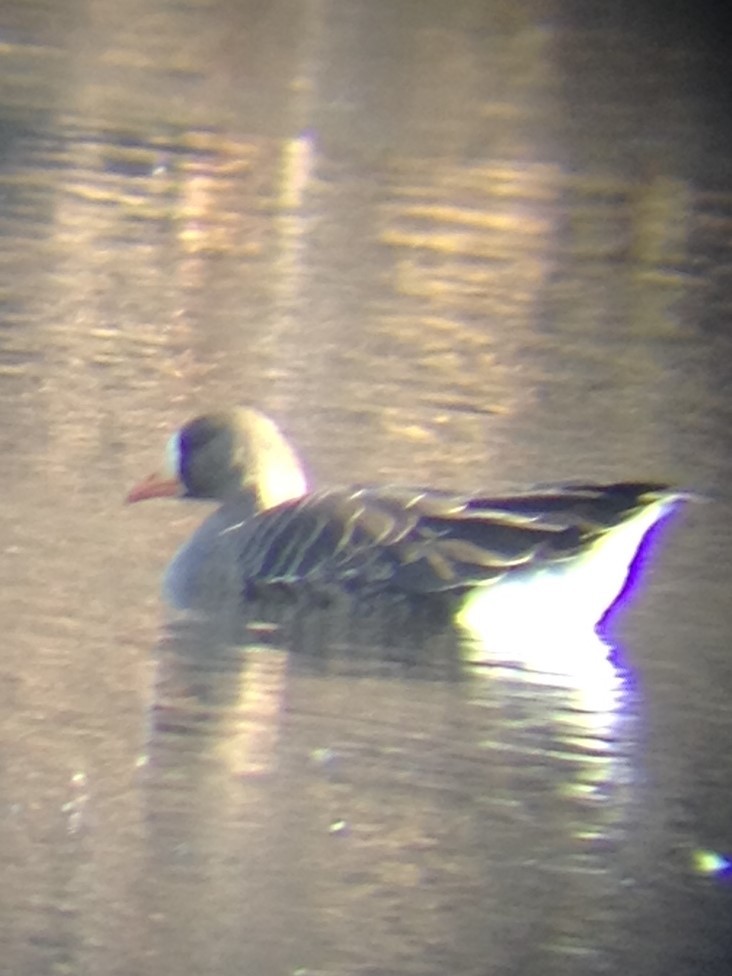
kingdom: Animalia
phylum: Chordata
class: Aves
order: Anseriformes
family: Anatidae
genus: Anser
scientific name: Anser albifrons
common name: Greater white-fronted goose
